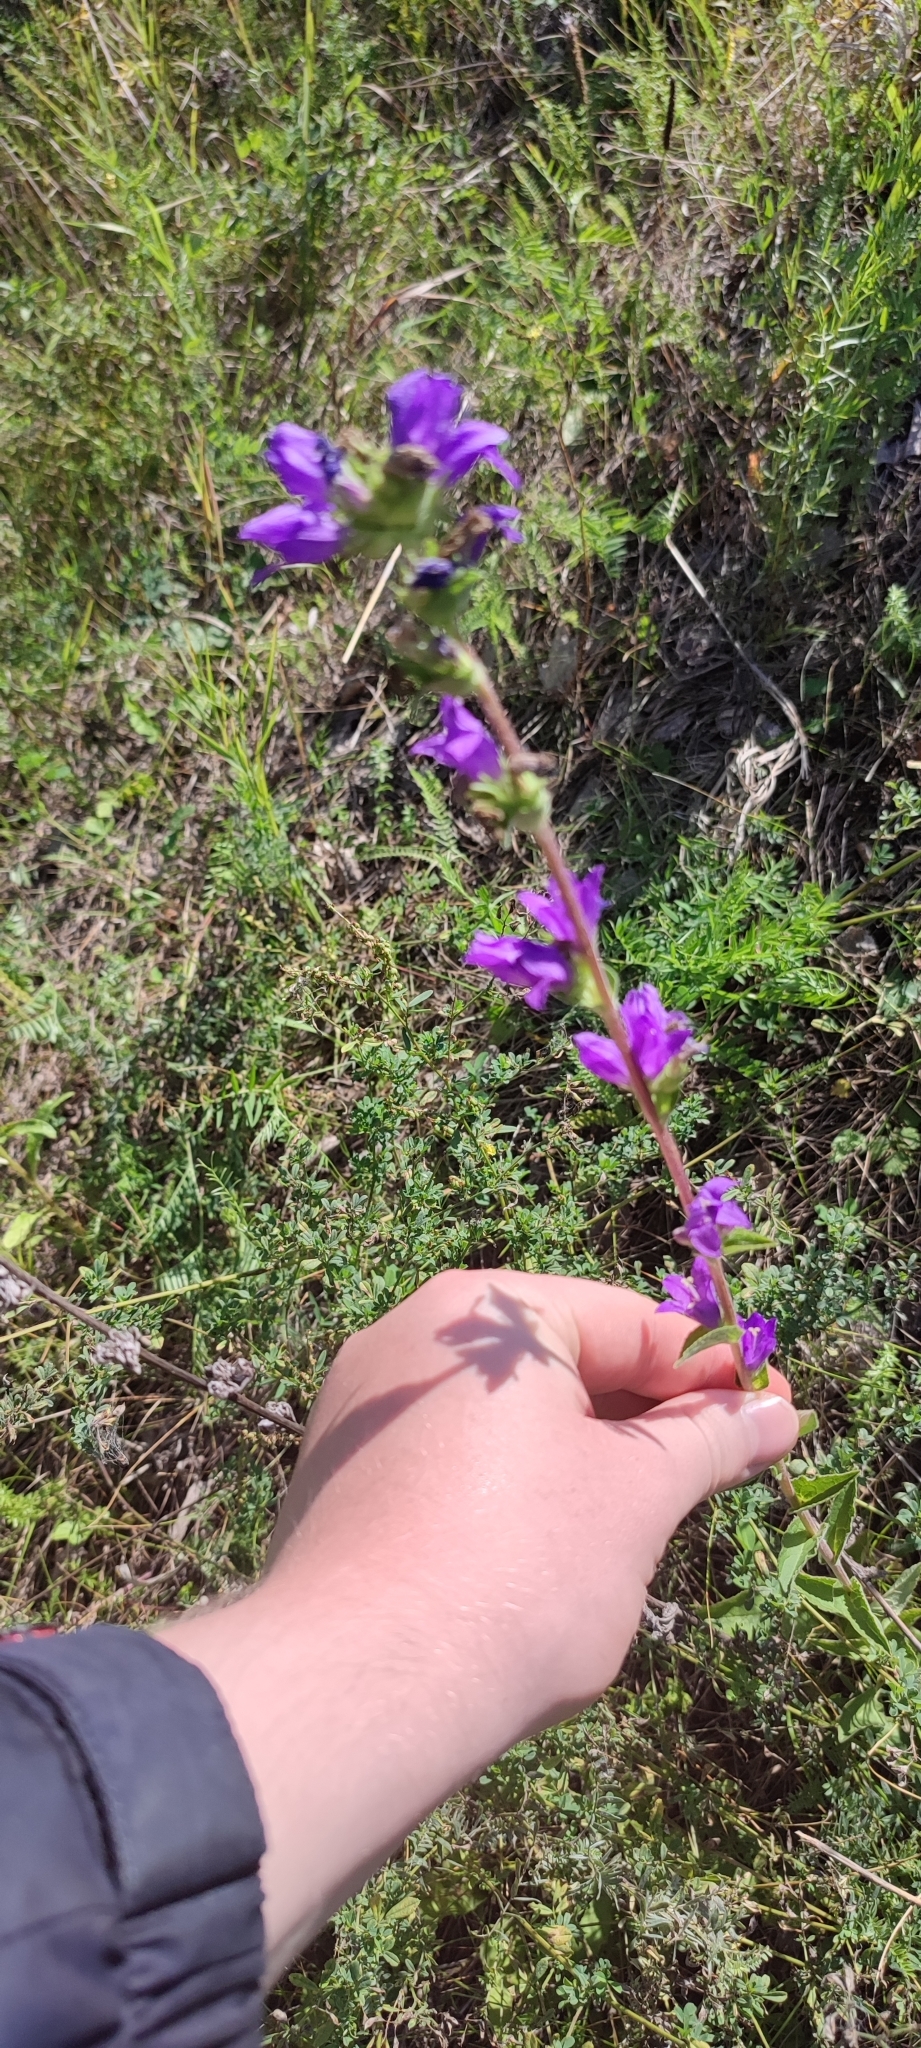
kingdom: Plantae
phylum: Tracheophyta
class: Magnoliopsida
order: Asterales
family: Campanulaceae
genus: Campanula
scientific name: Campanula glomerata
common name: Clustered bellflower
